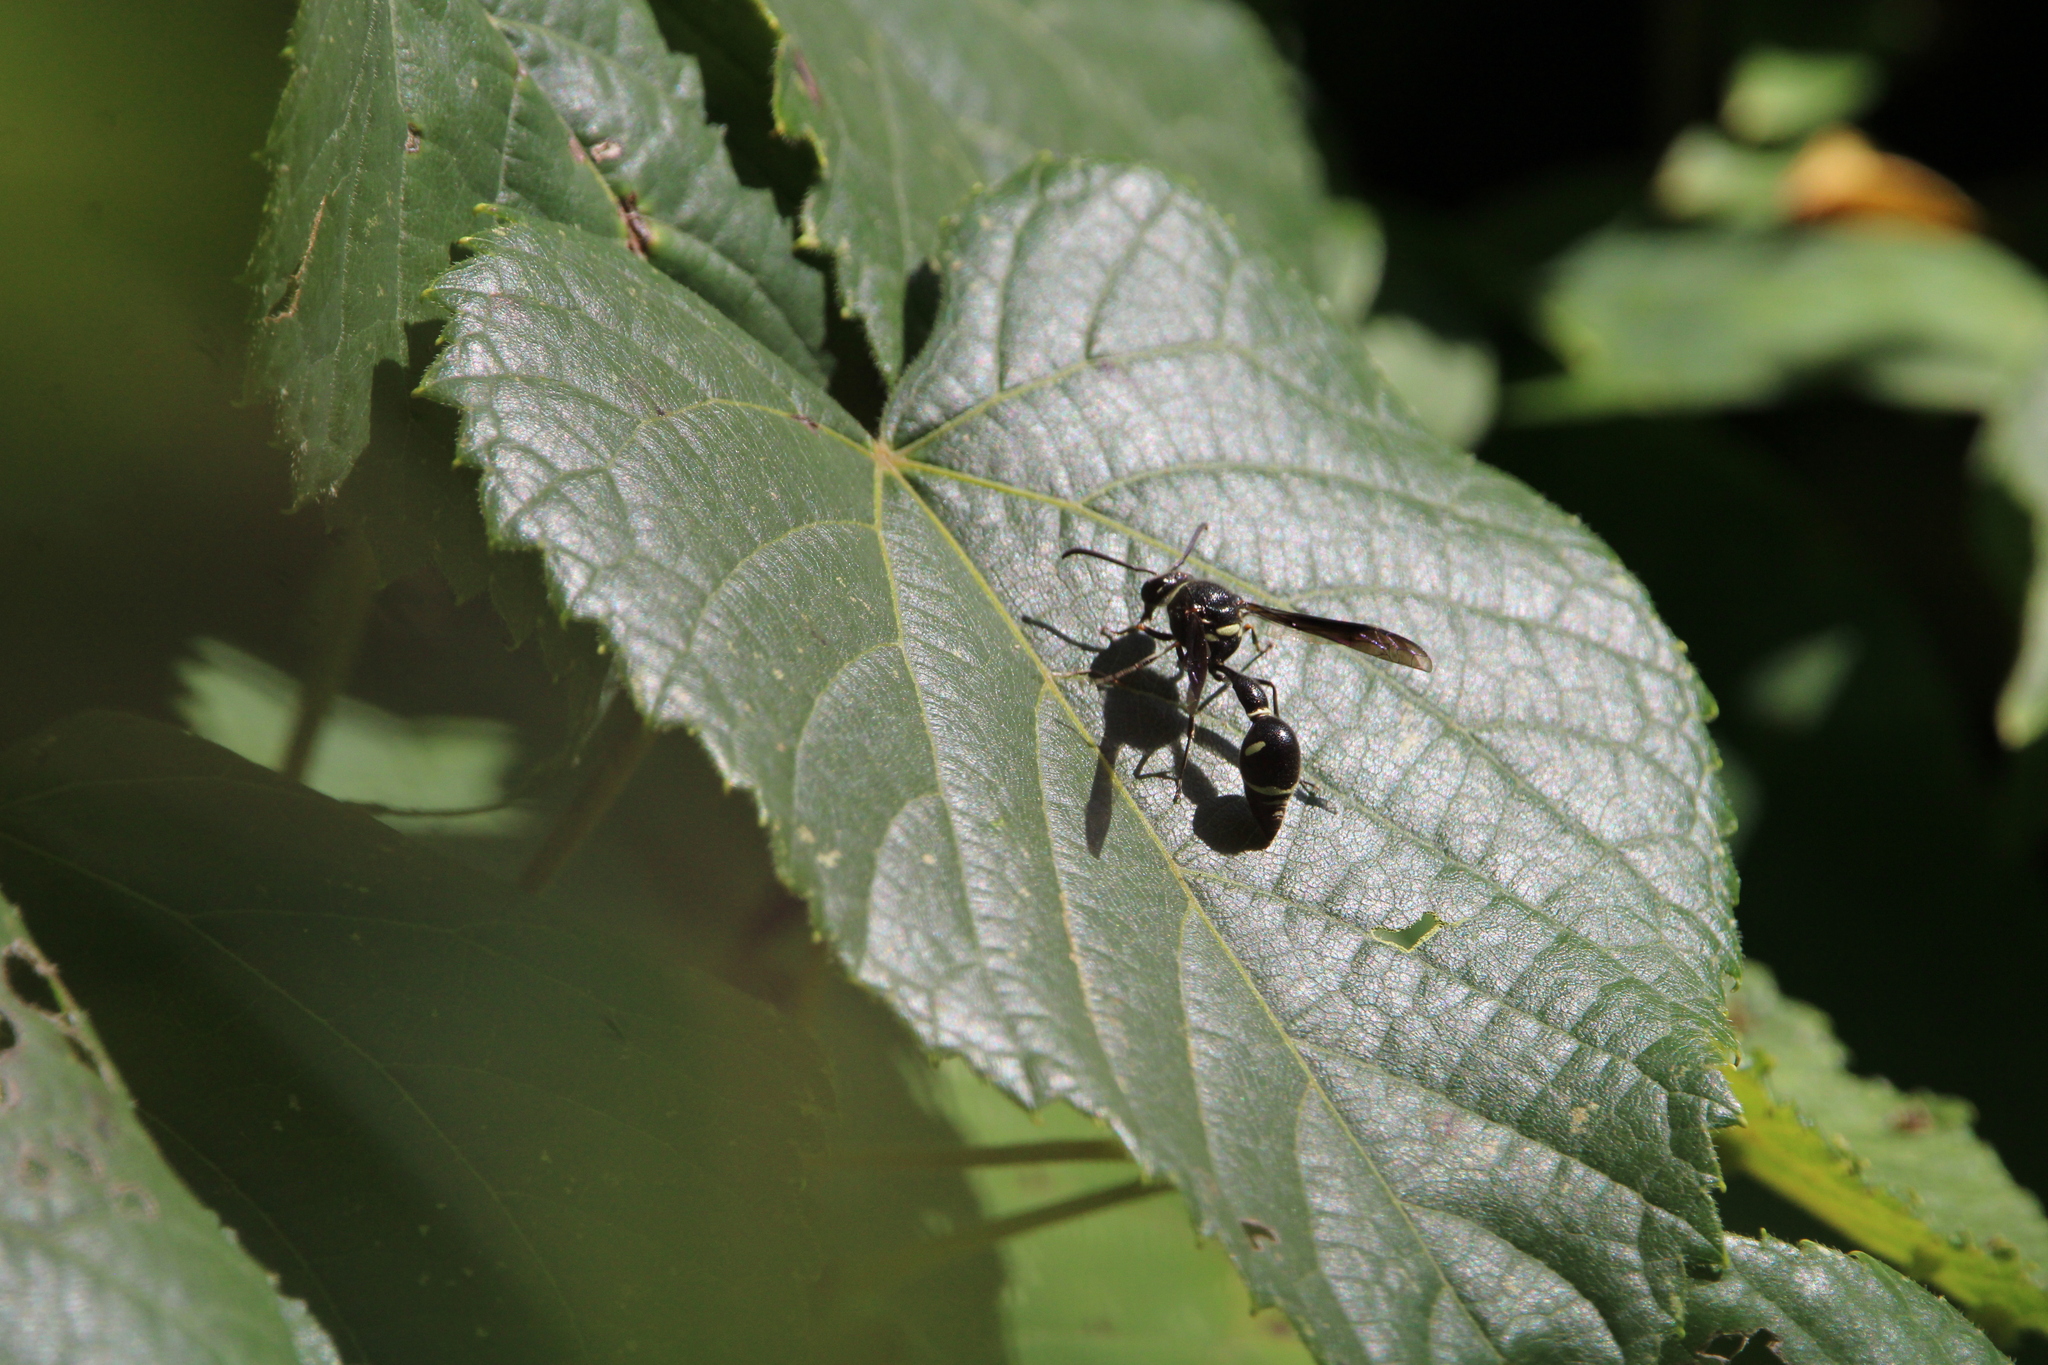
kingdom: Animalia
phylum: Arthropoda
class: Insecta
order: Hymenoptera
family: Vespidae
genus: Eumenes
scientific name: Eumenes fraternus
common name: Fraternal potter wasp
